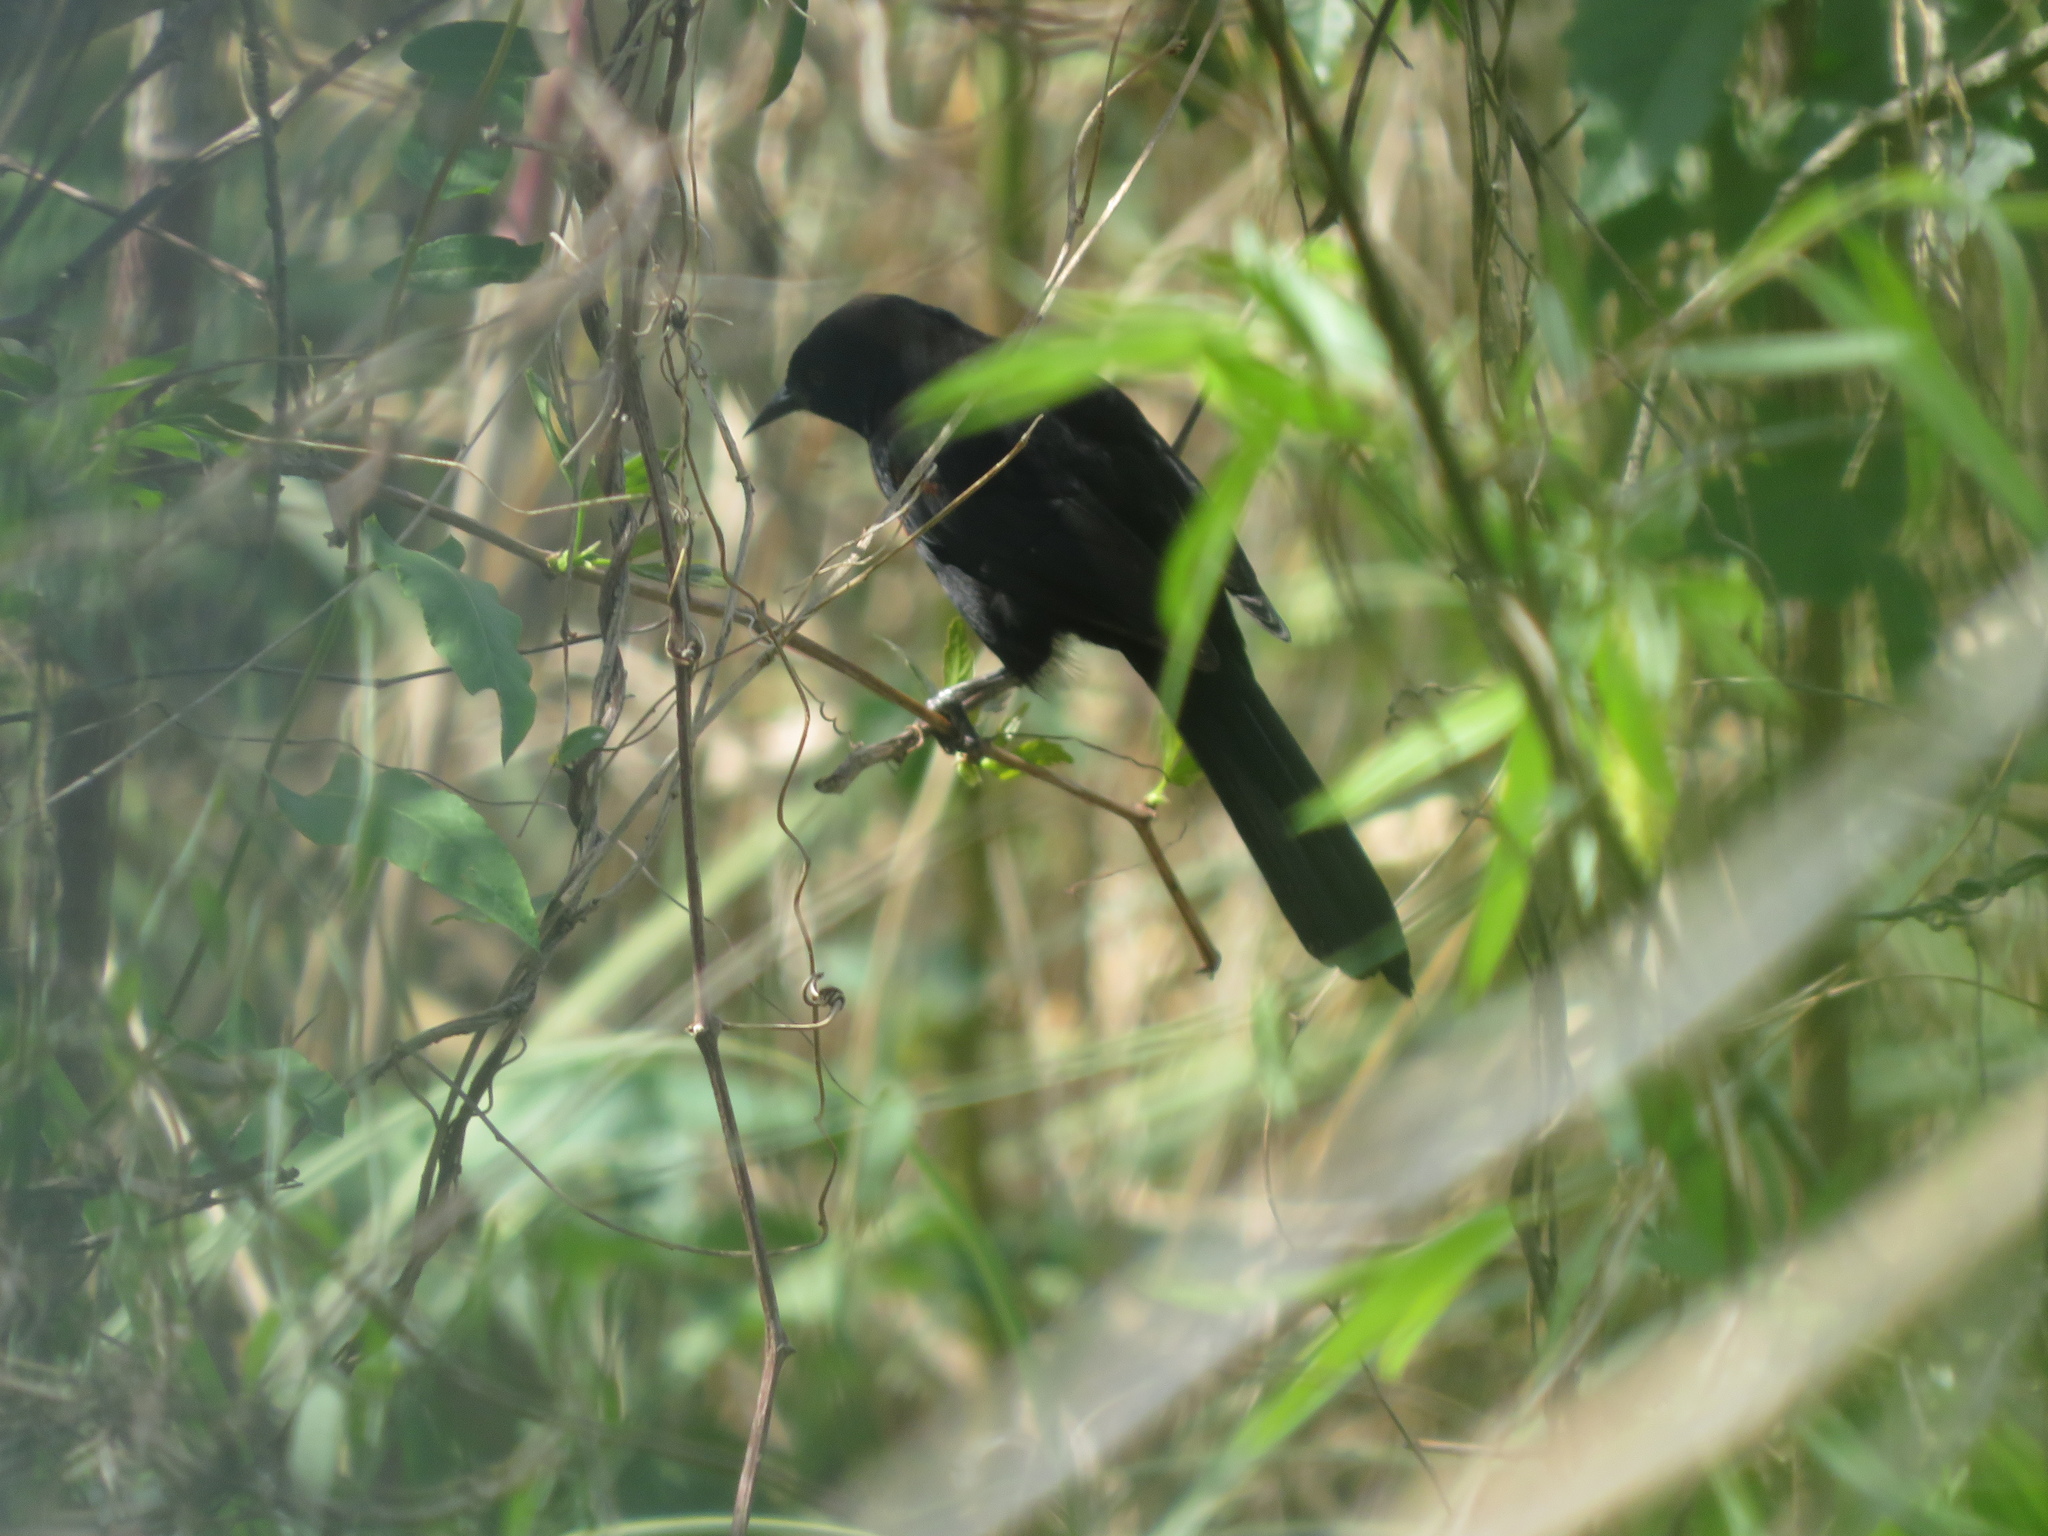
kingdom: Animalia
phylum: Chordata
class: Aves
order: Passeriformes
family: Icteridae
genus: Icterus
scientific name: Icterus cayanensis
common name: Epaulet oriole
